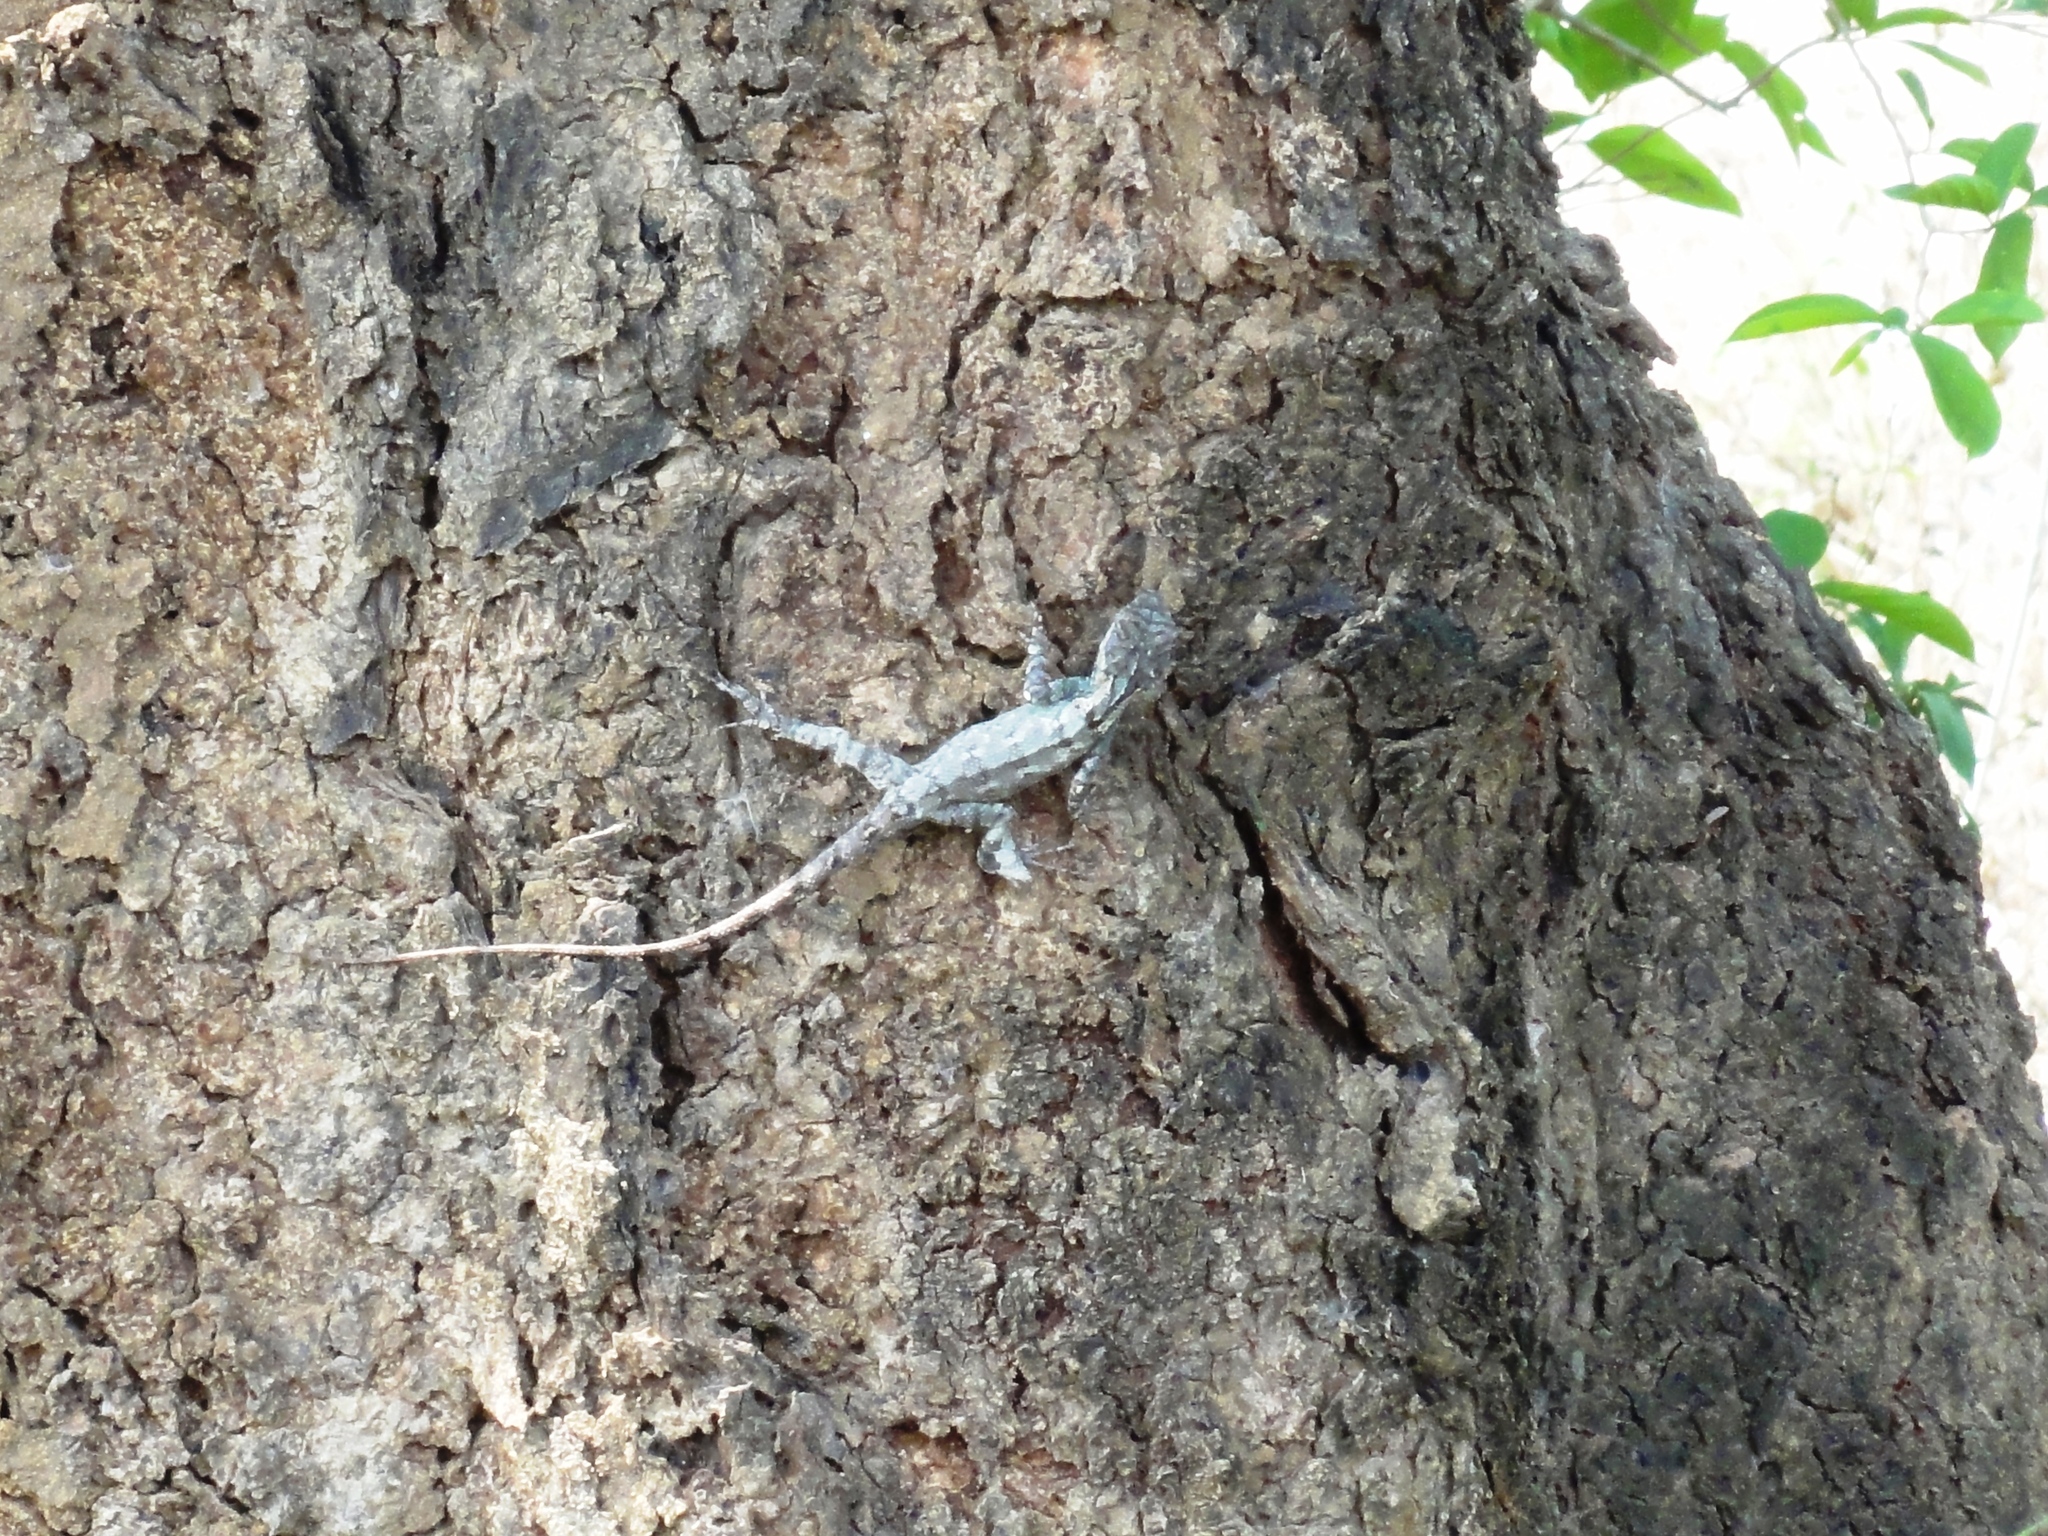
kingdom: Animalia
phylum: Chordata
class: Squamata
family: Agamidae
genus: Calotes
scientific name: Calotes goetzi
